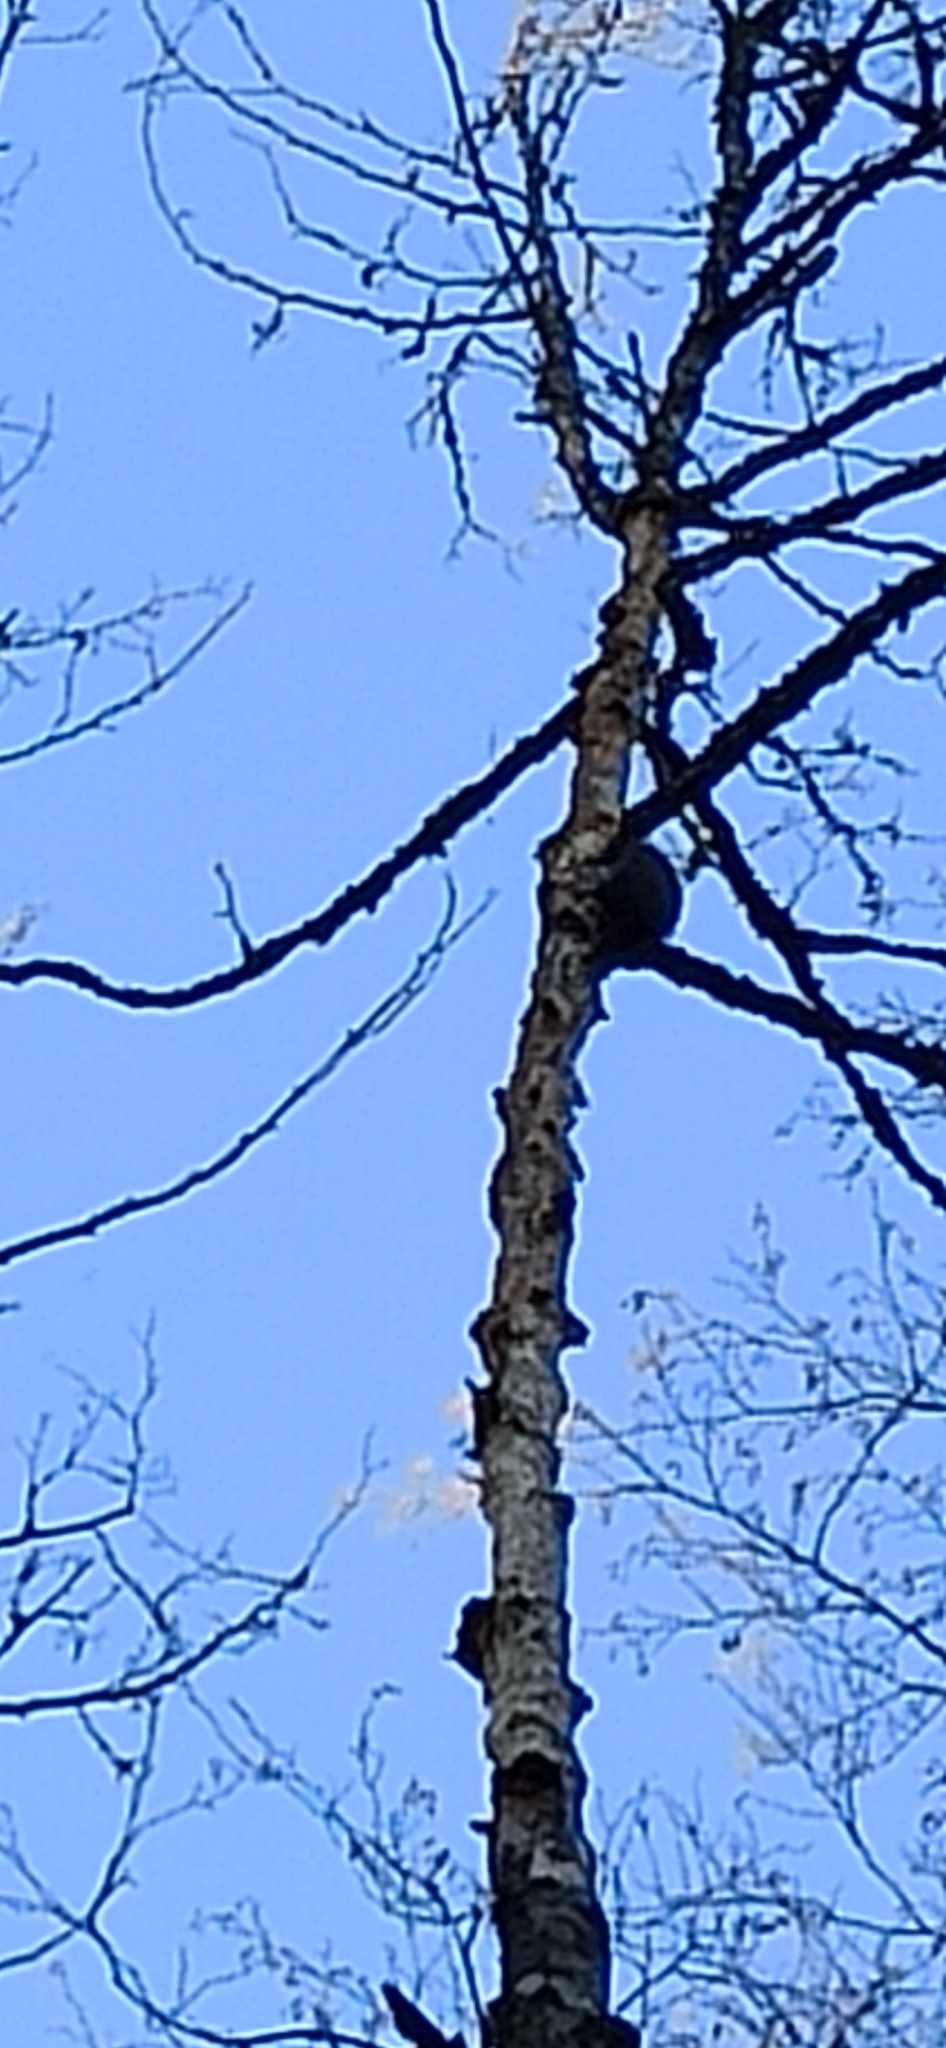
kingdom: Animalia
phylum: Chordata
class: Aves
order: Piciformes
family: Picidae
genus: Dryocopus
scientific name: Dryocopus martius
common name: Black woodpecker
